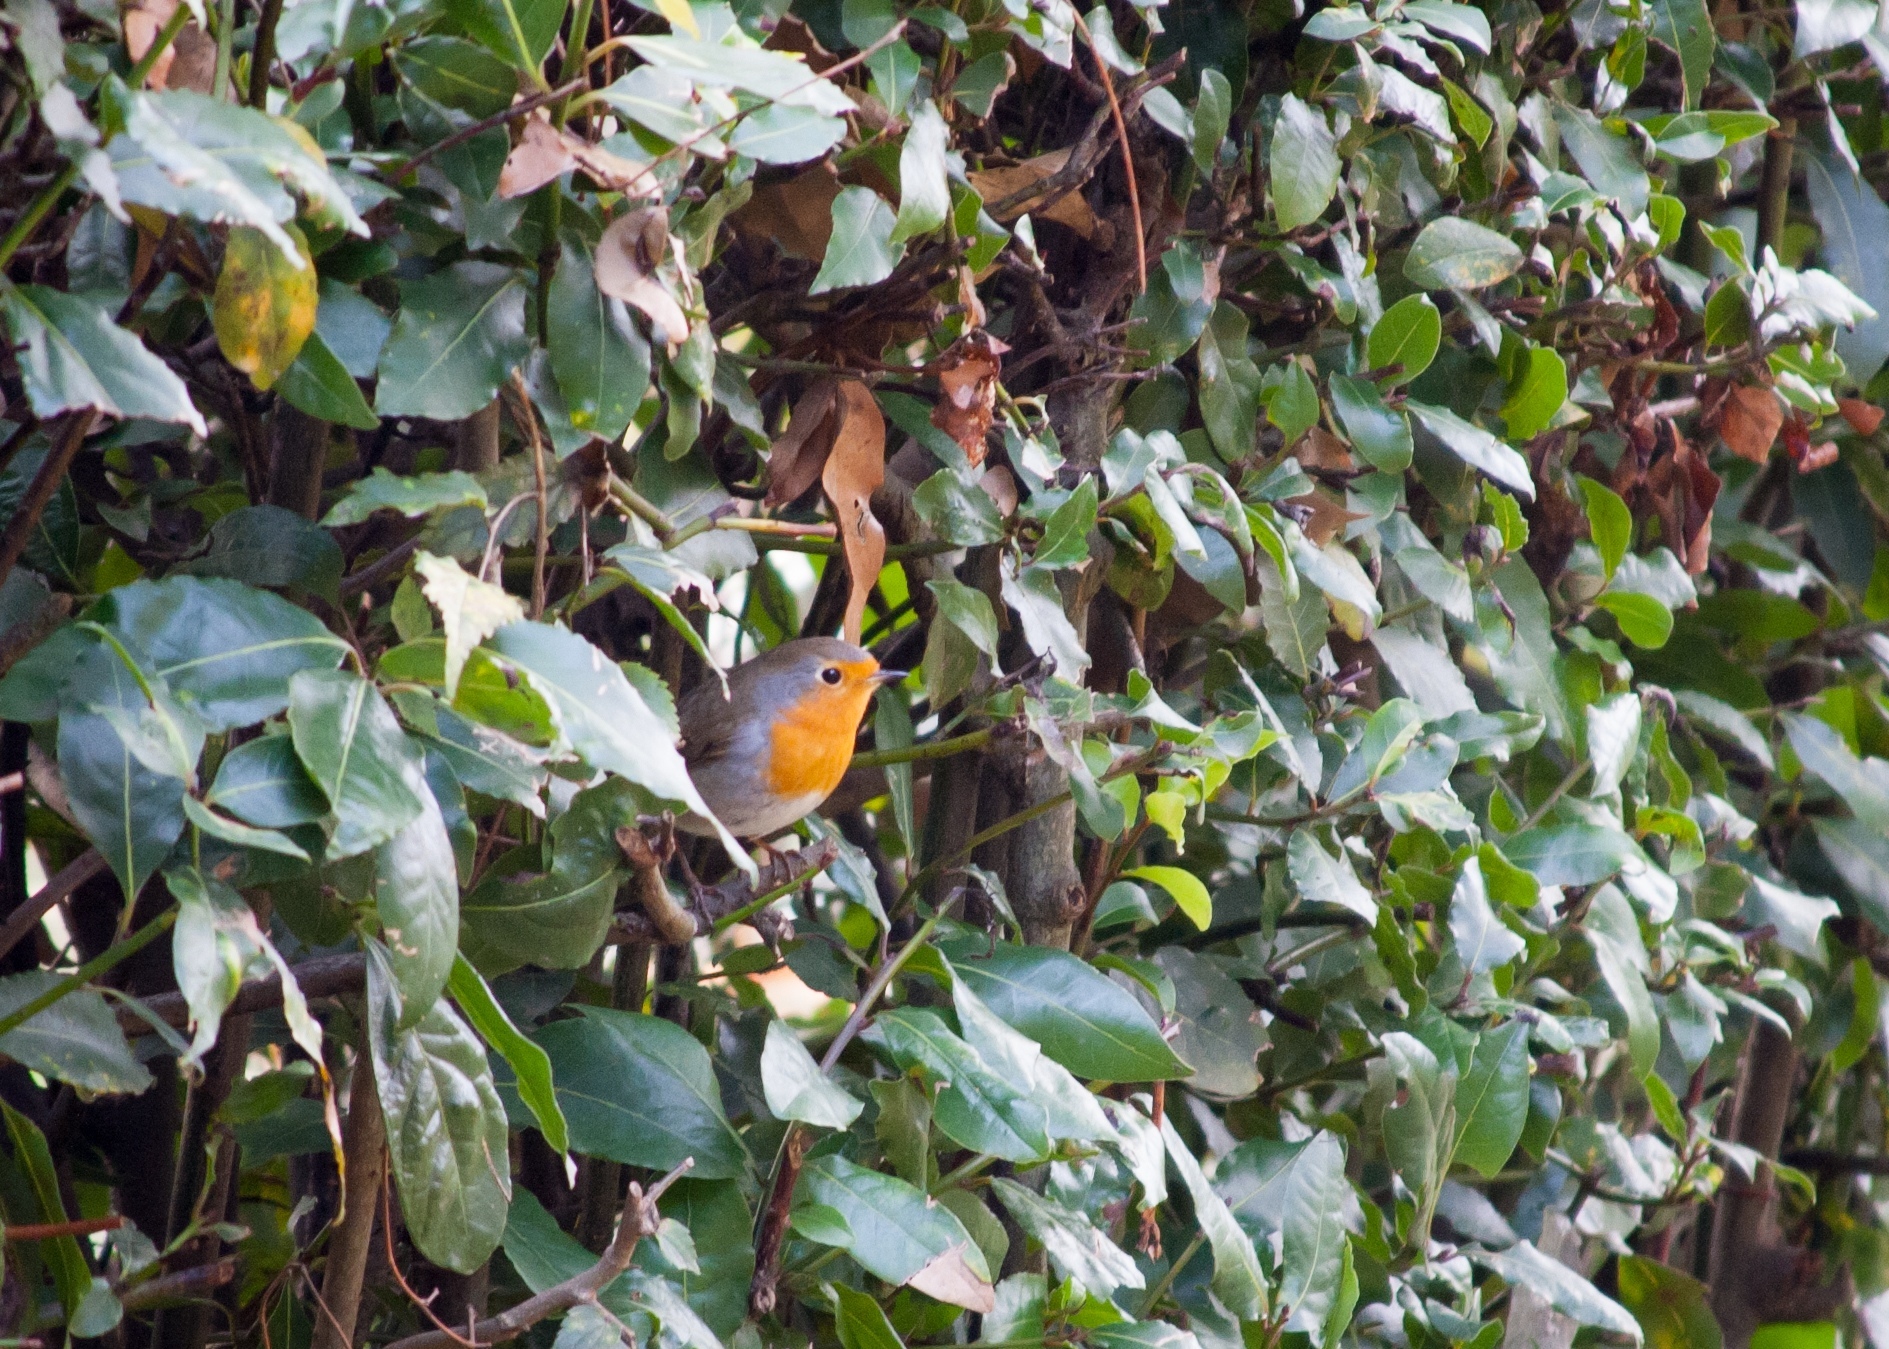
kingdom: Animalia
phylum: Chordata
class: Aves
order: Passeriformes
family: Muscicapidae
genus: Erithacus
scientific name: Erithacus rubecula
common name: European robin
